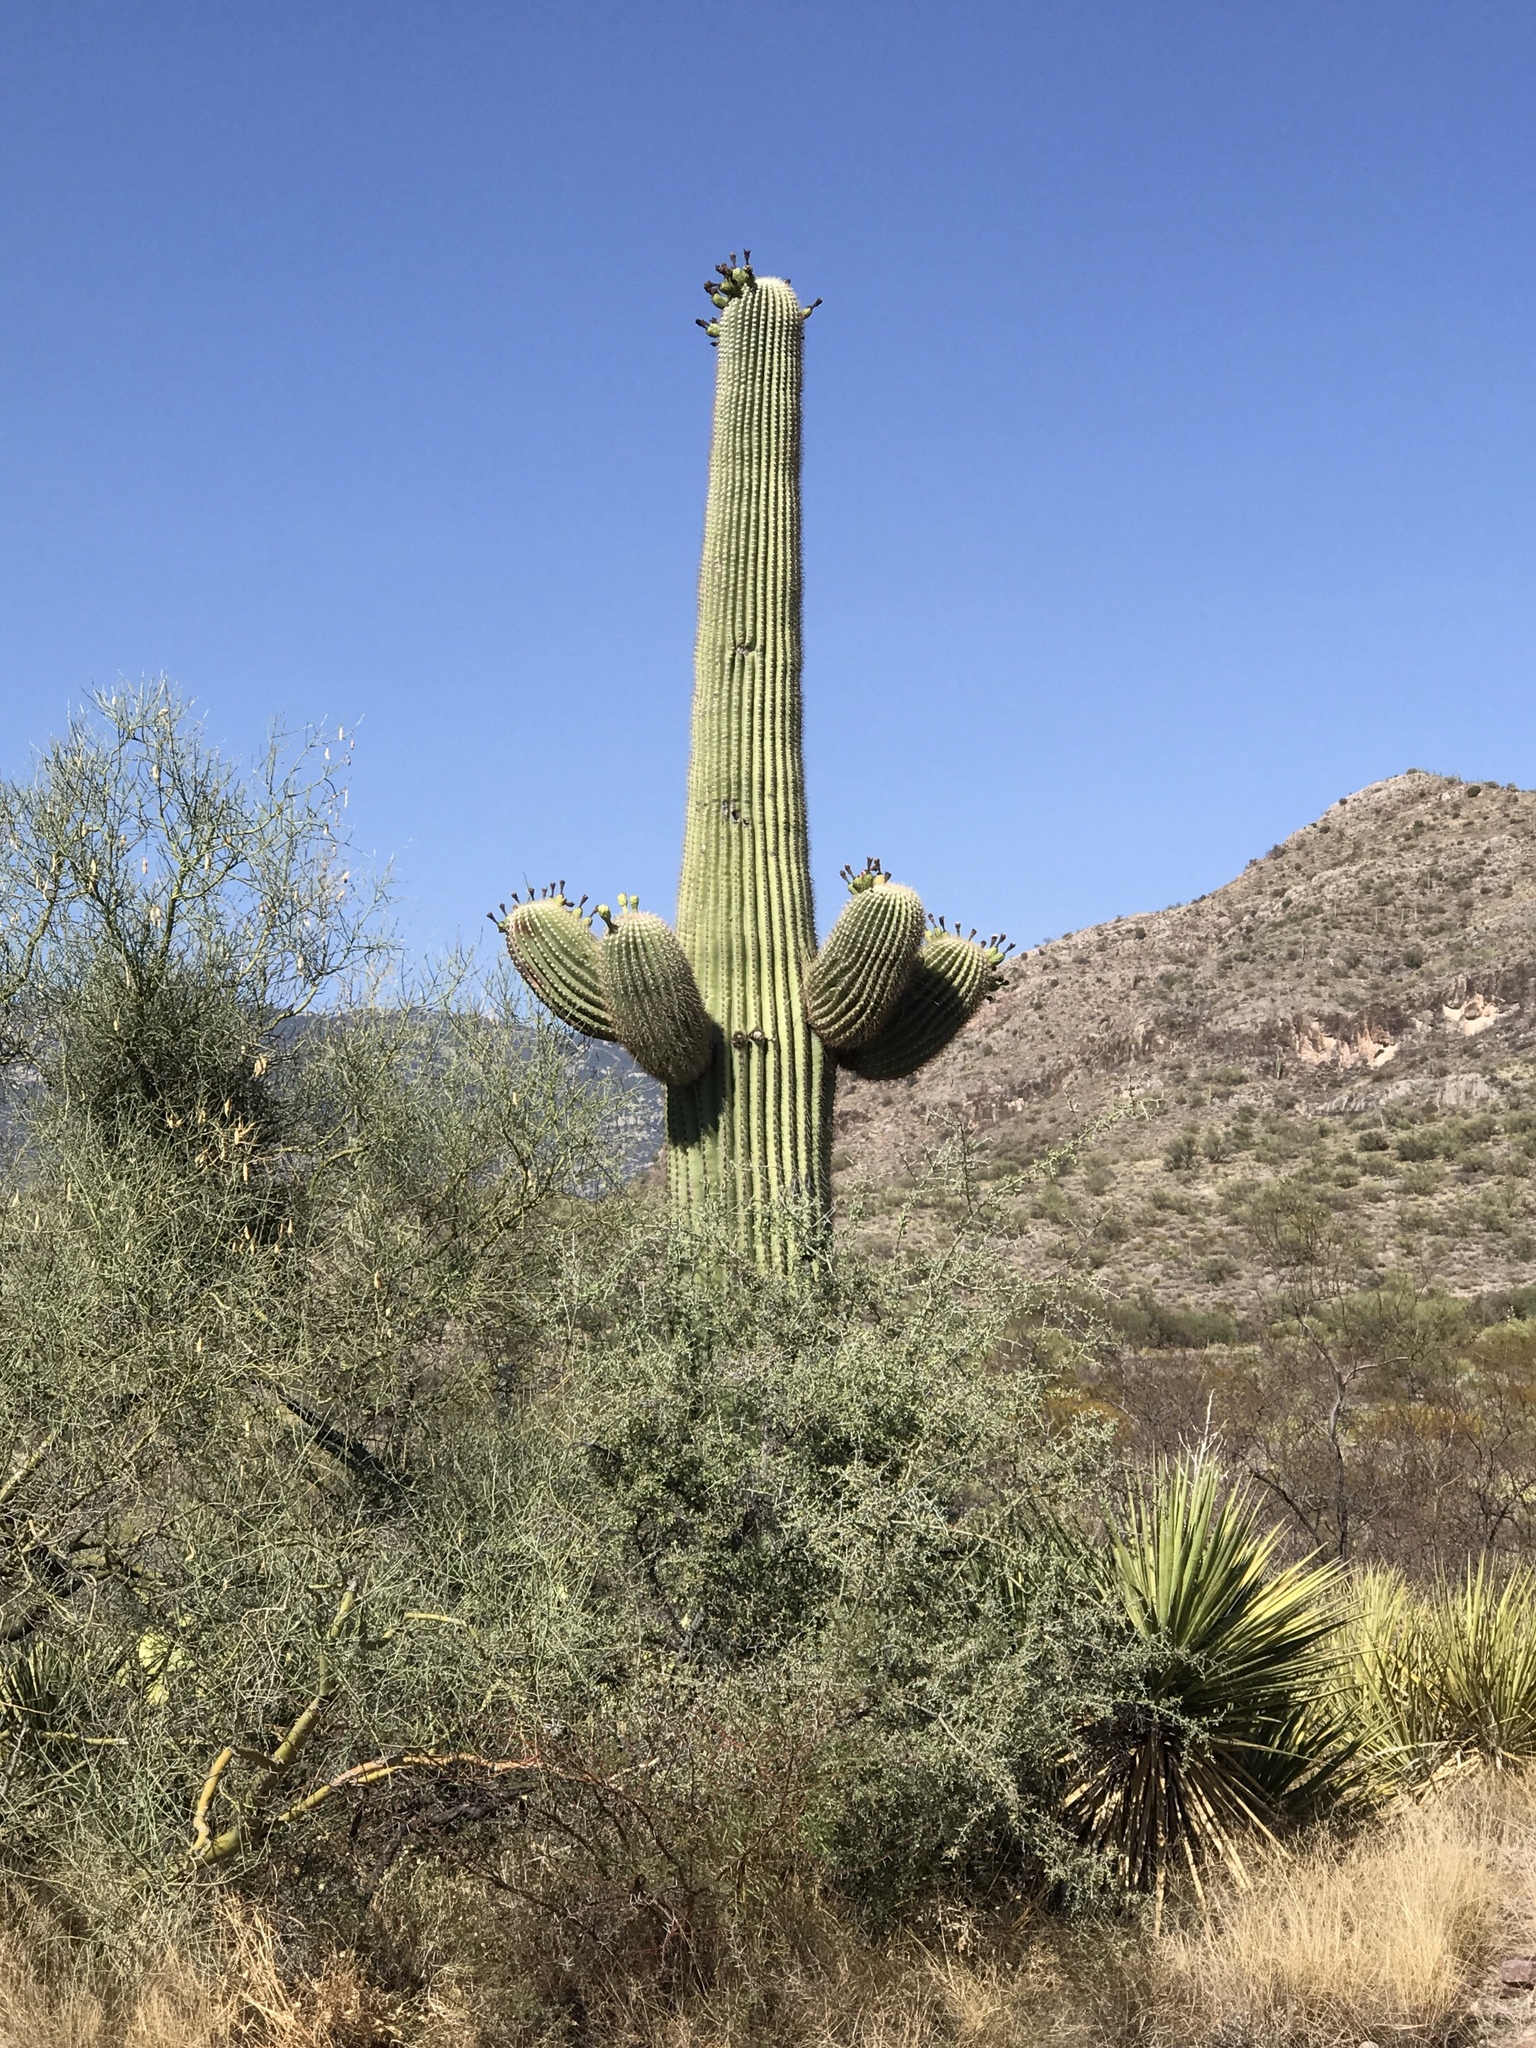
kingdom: Plantae
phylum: Tracheophyta
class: Magnoliopsida
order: Caryophyllales
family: Cactaceae
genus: Carnegiea
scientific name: Carnegiea gigantea
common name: Saguaro
